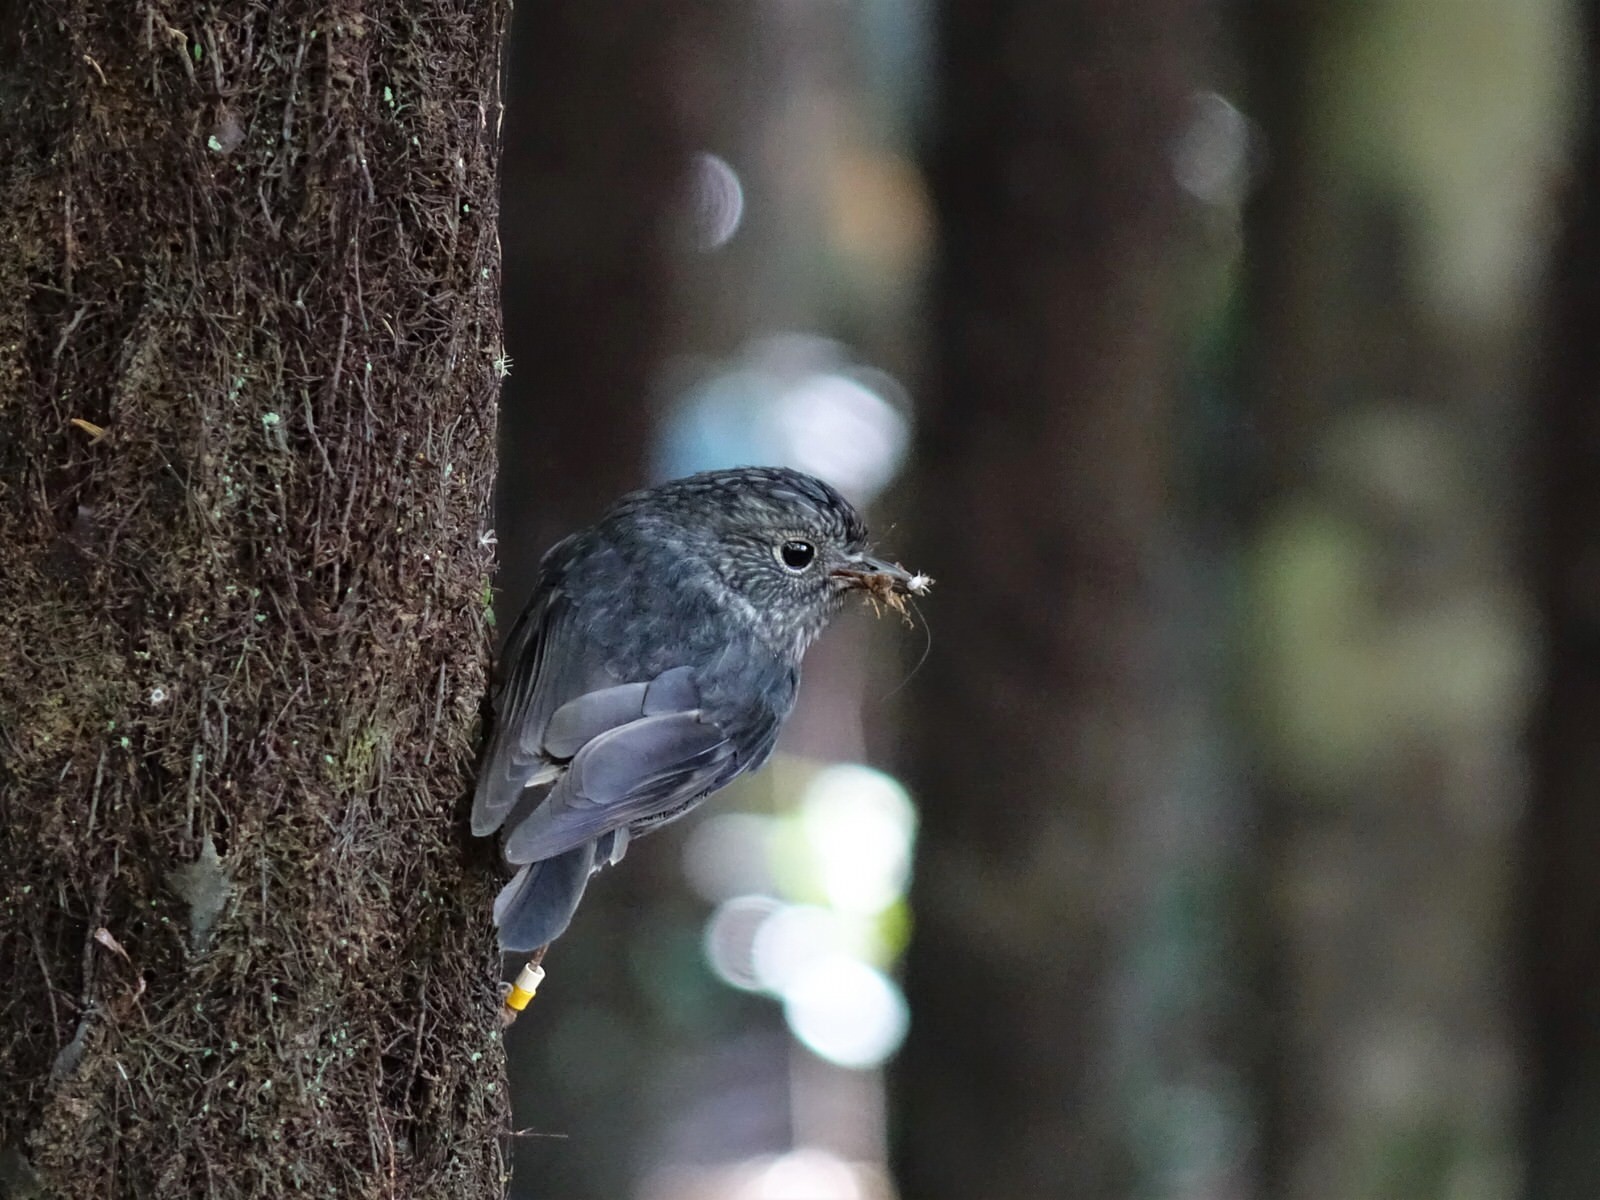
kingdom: Animalia
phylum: Chordata
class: Aves
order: Passeriformes
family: Petroicidae
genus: Petroica
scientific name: Petroica australis
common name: New zealand robin
